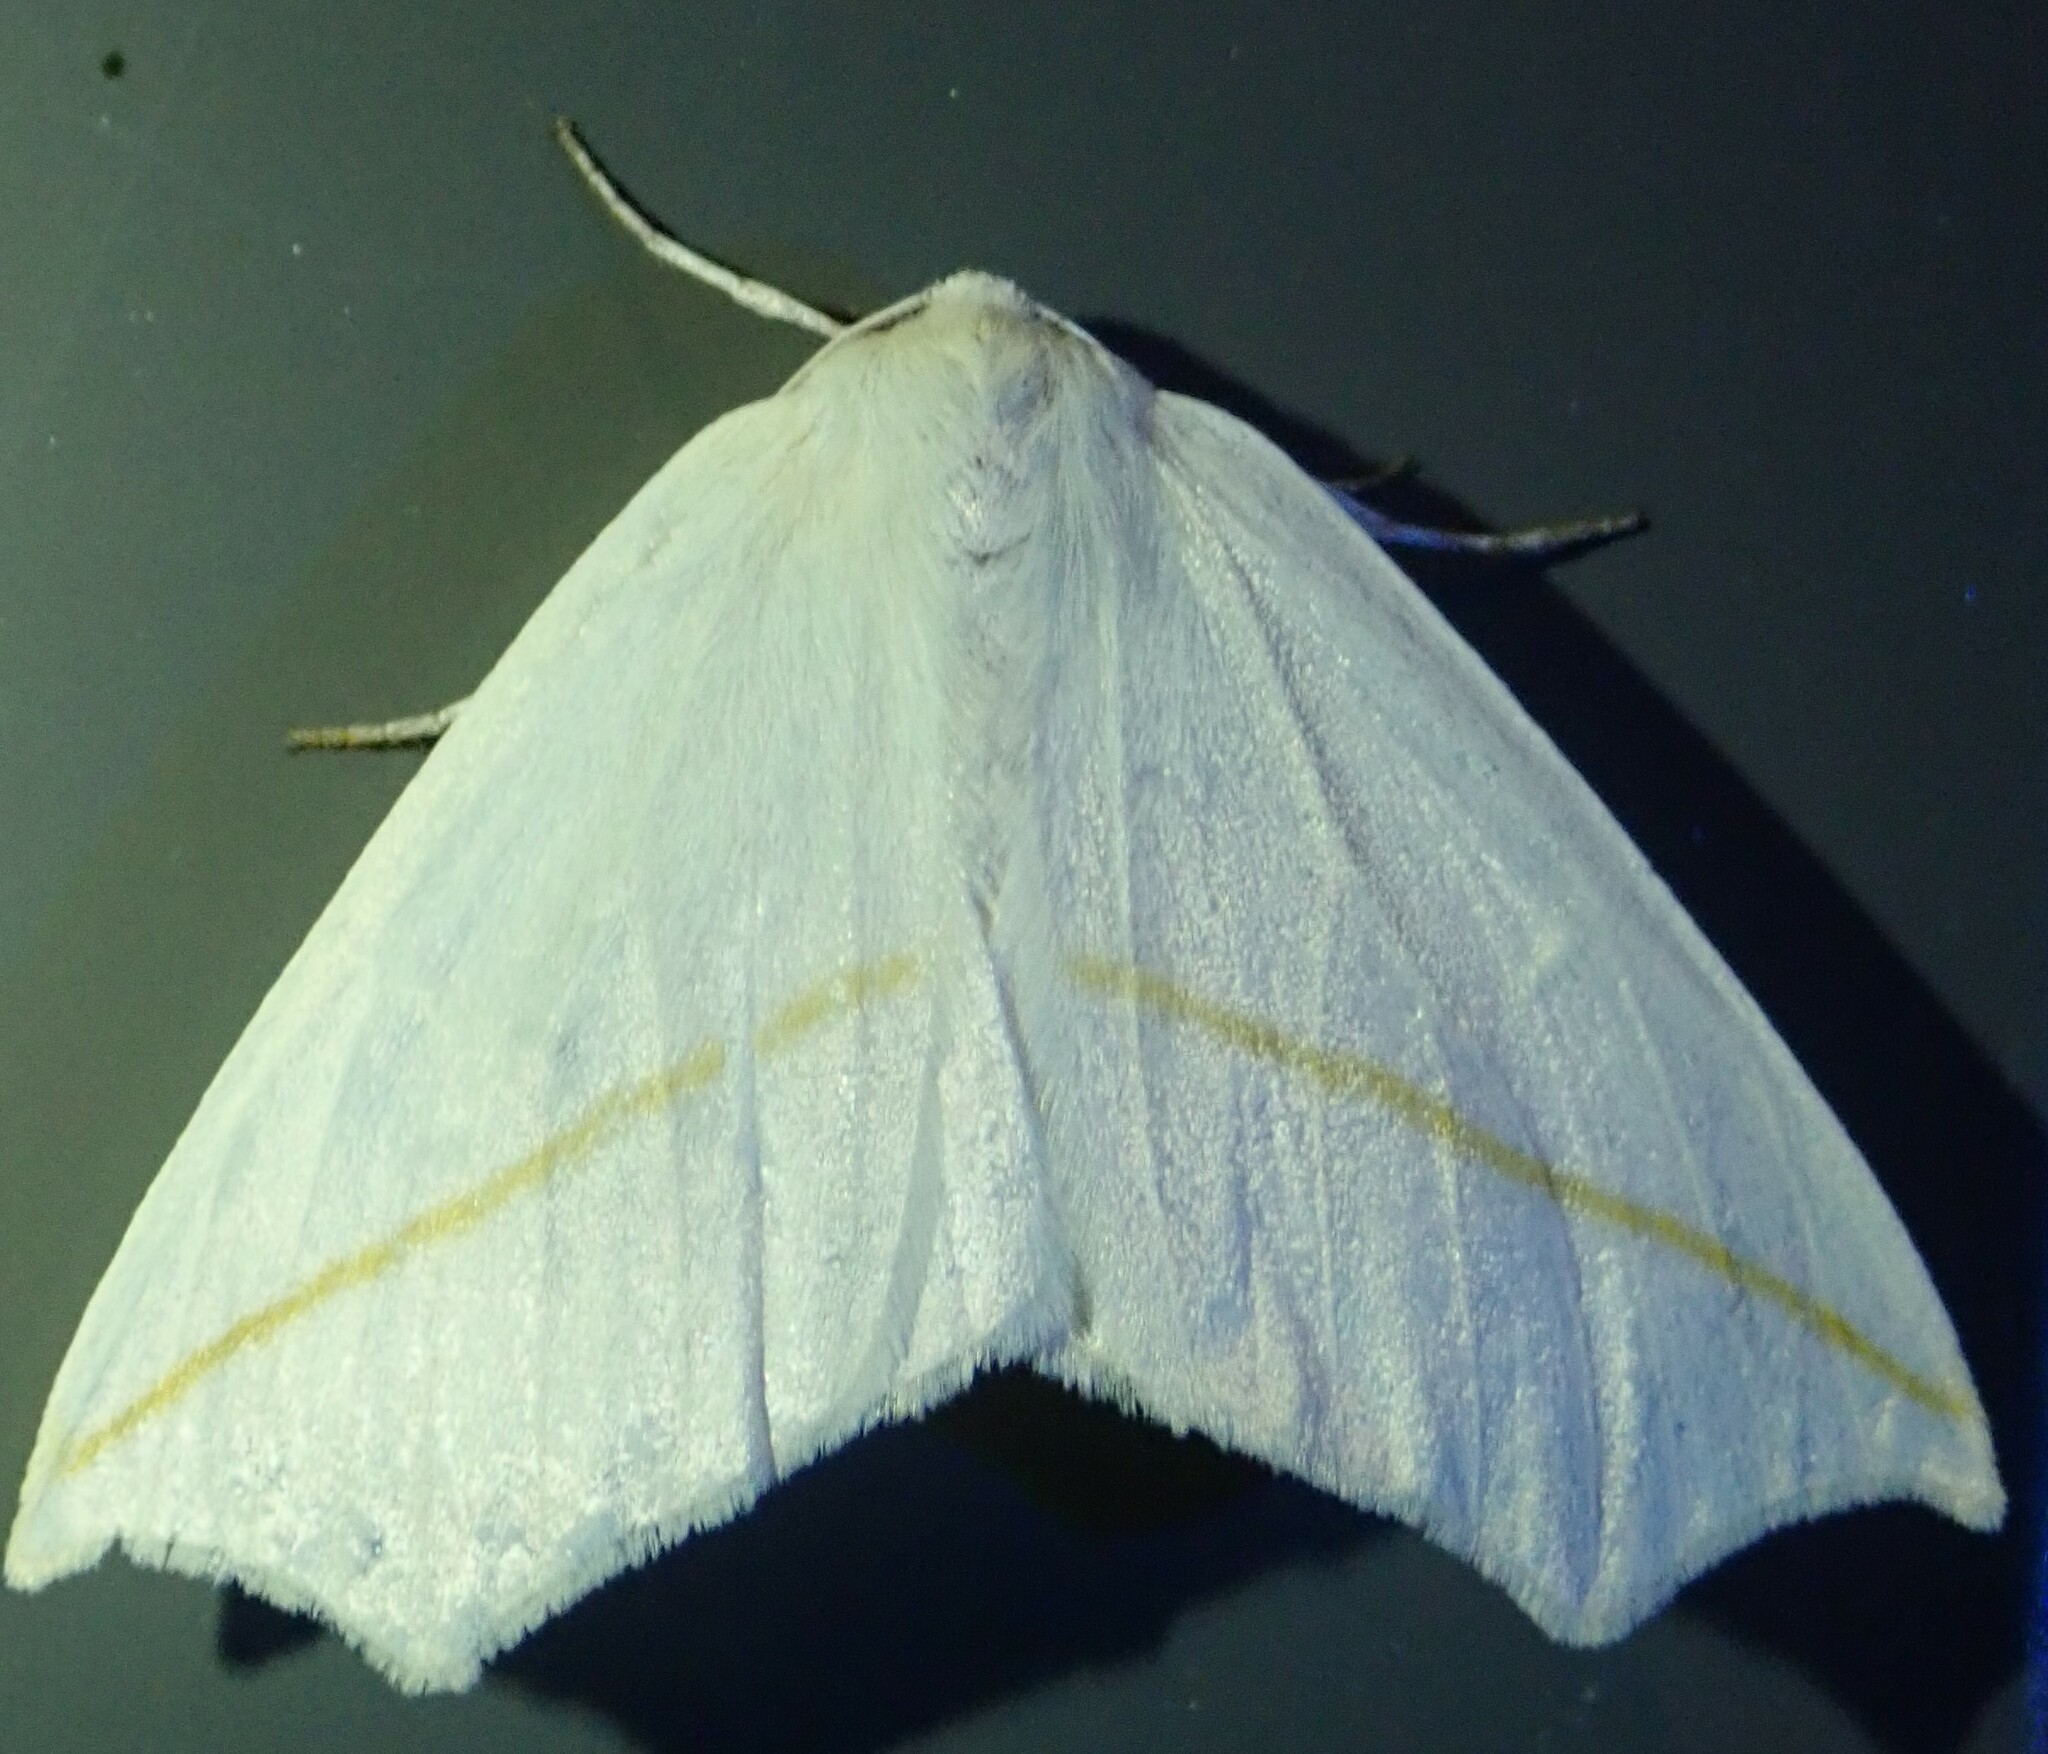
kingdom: Animalia
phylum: Arthropoda
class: Insecta
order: Lepidoptera
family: Geometridae
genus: Tetracis
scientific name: Tetracis cachexiata
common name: White slant-line
